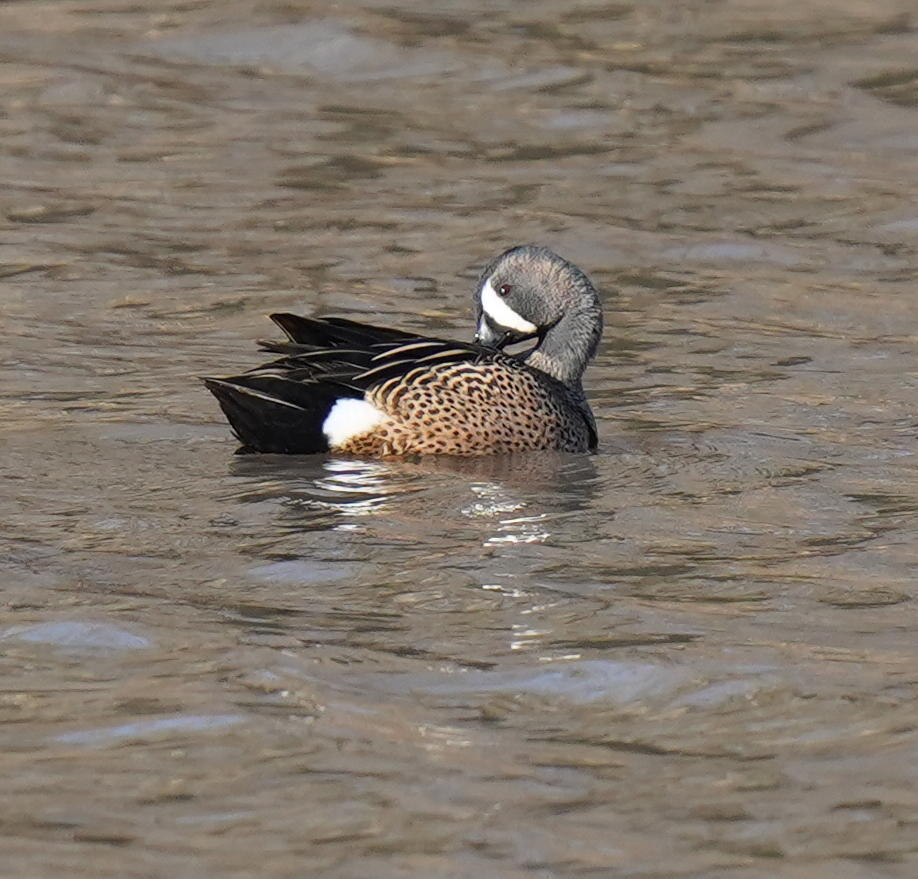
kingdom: Animalia
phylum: Chordata
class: Aves
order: Anseriformes
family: Anatidae
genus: Spatula
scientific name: Spatula discors
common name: Blue-winged teal
